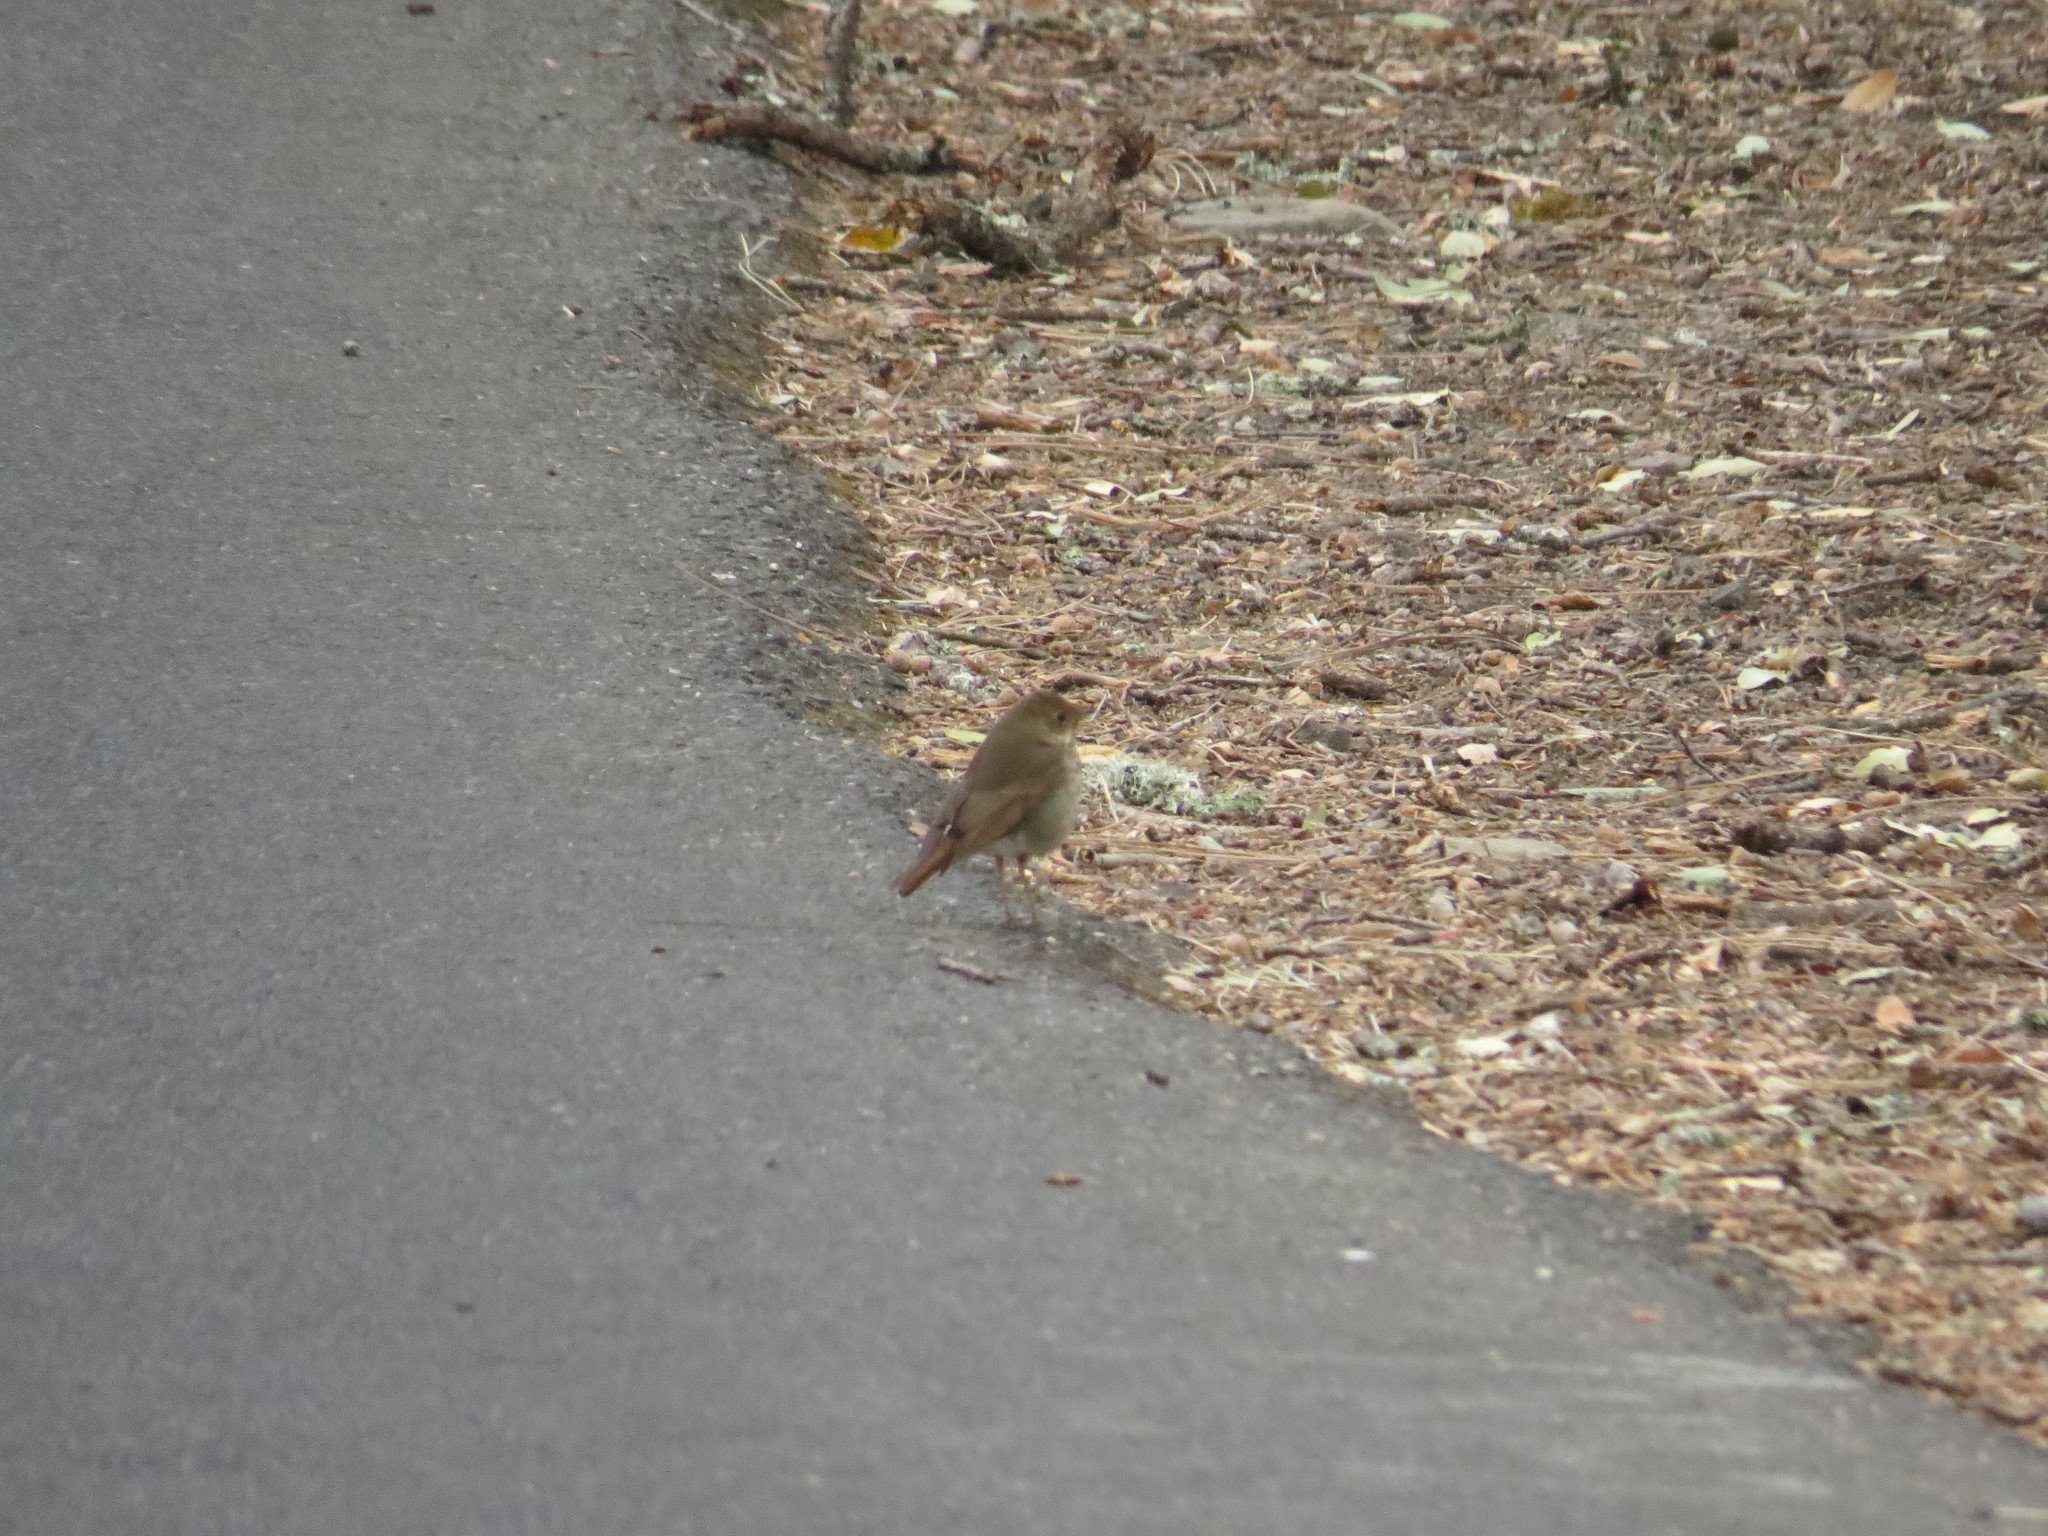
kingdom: Animalia
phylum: Chordata
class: Aves
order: Passeriformes
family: Turdidae
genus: Catharus
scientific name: Catharus guttatus
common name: Hermit thrush
